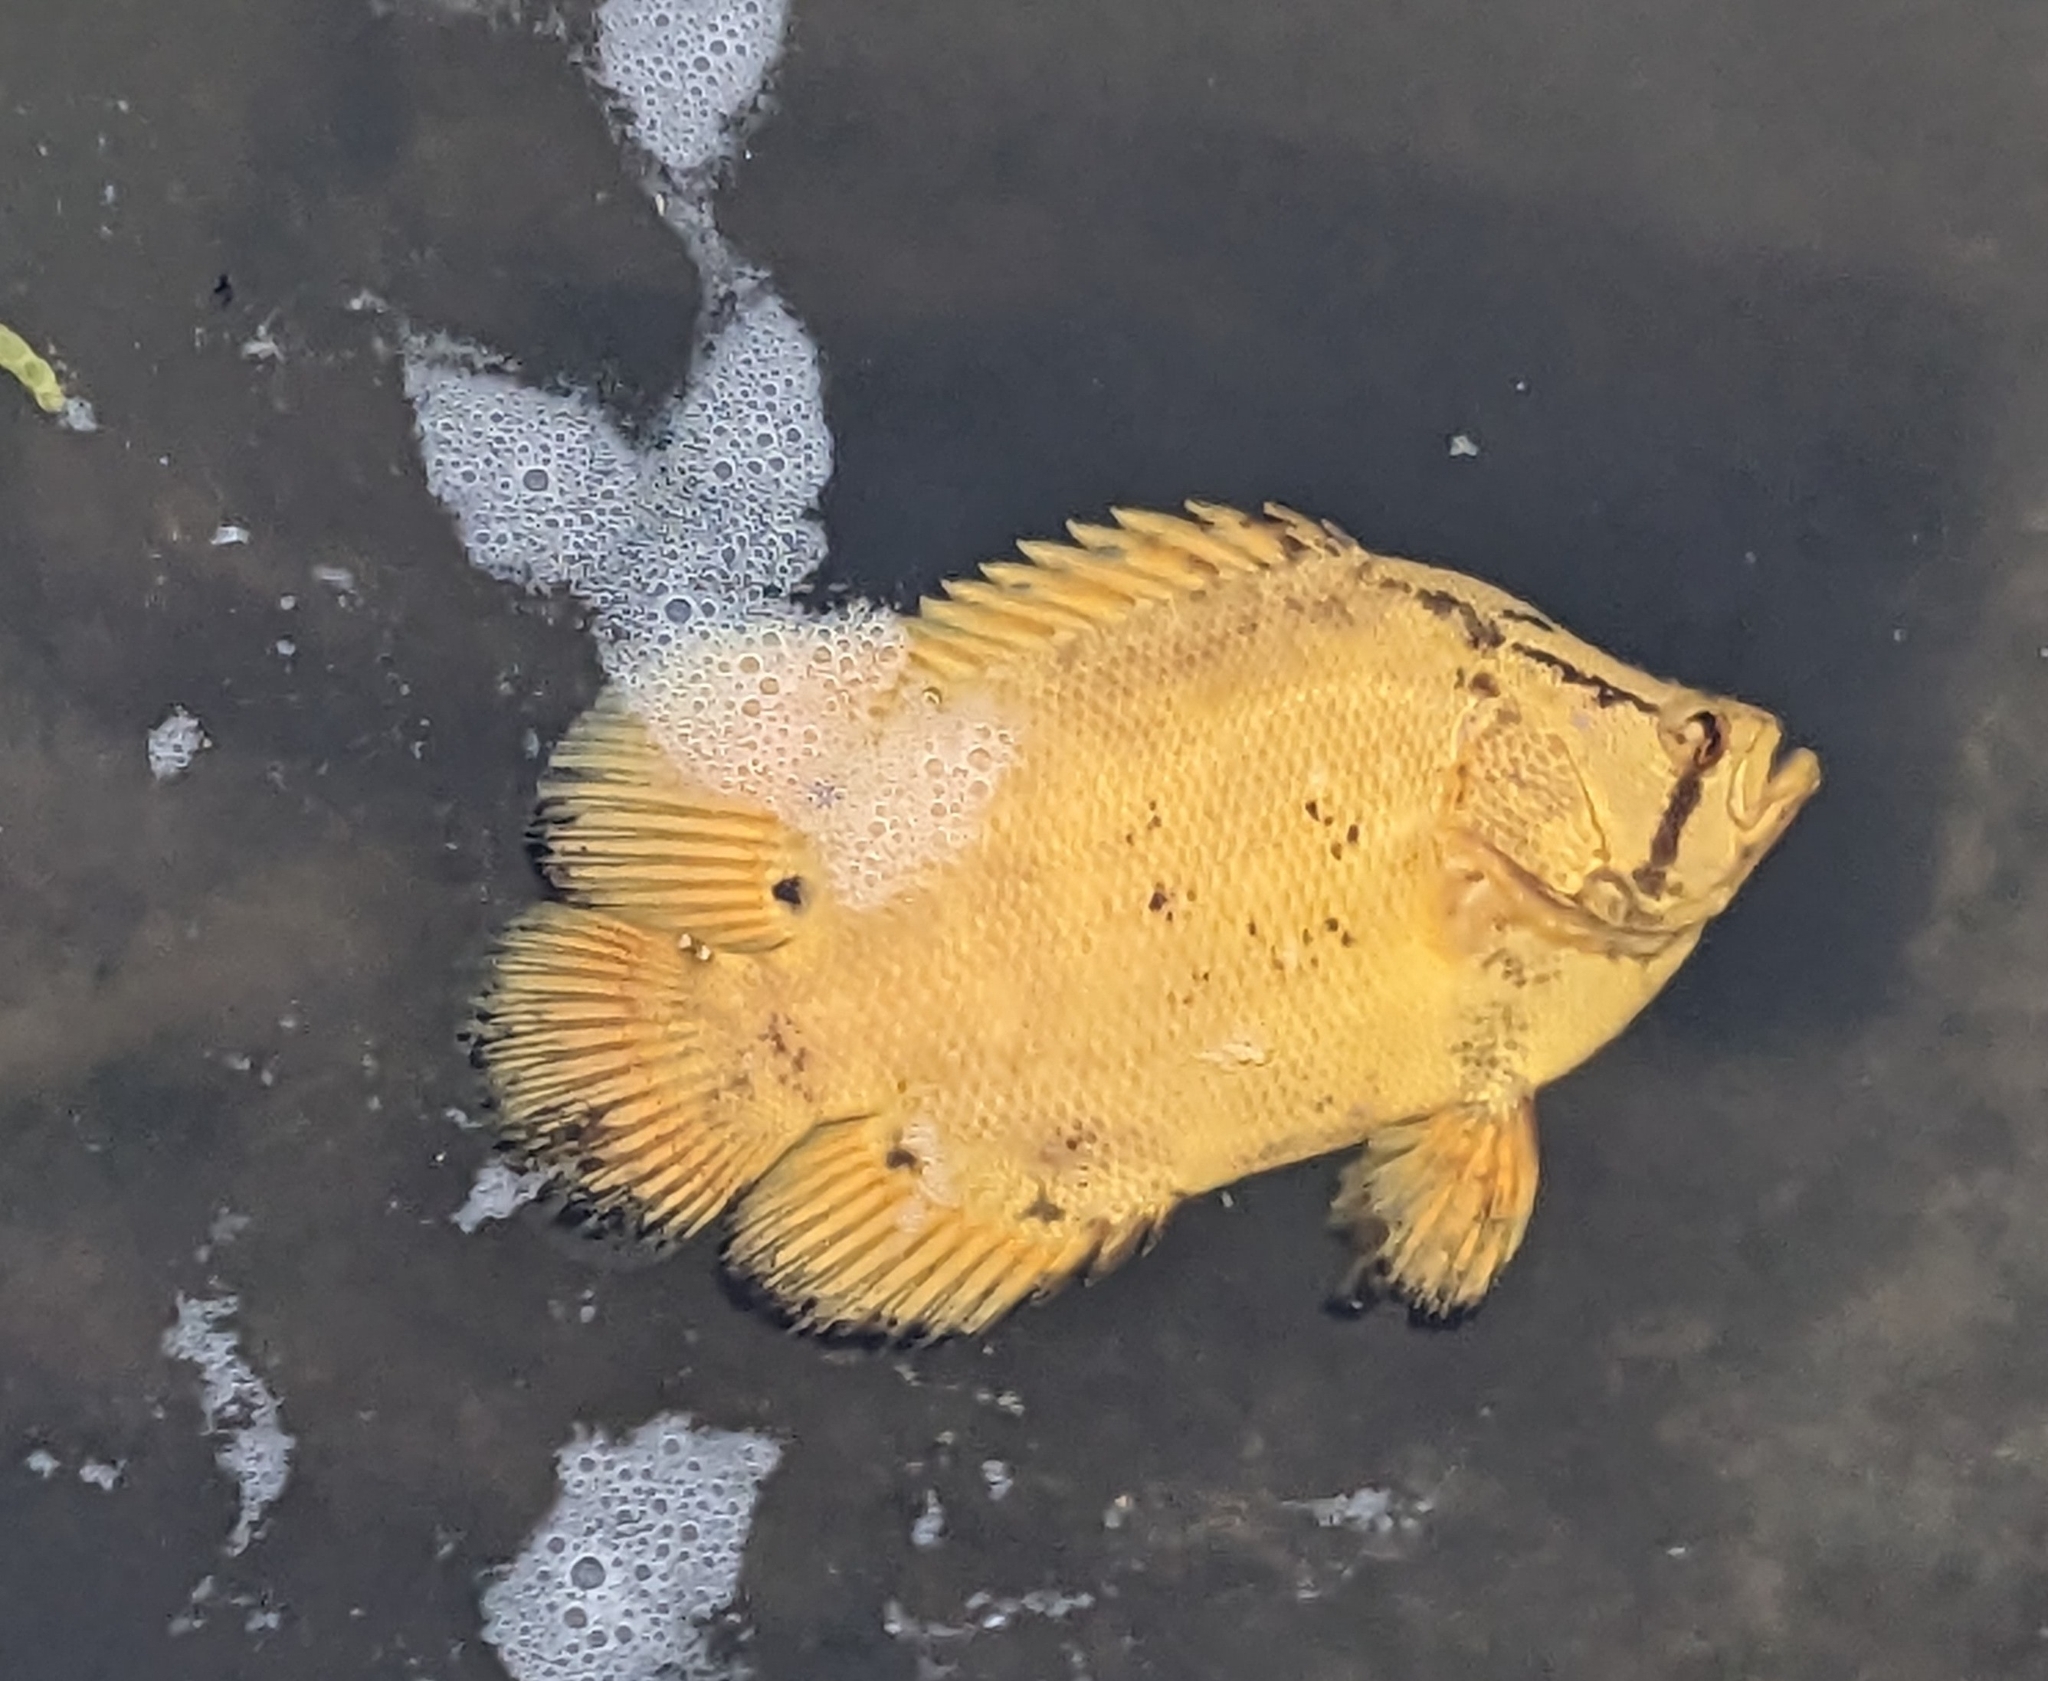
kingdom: Animalia
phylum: Chordata
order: Perciformes
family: Lobotidae
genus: Lobotes
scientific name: Lobotes surinamensis
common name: Atlantic tripletail
